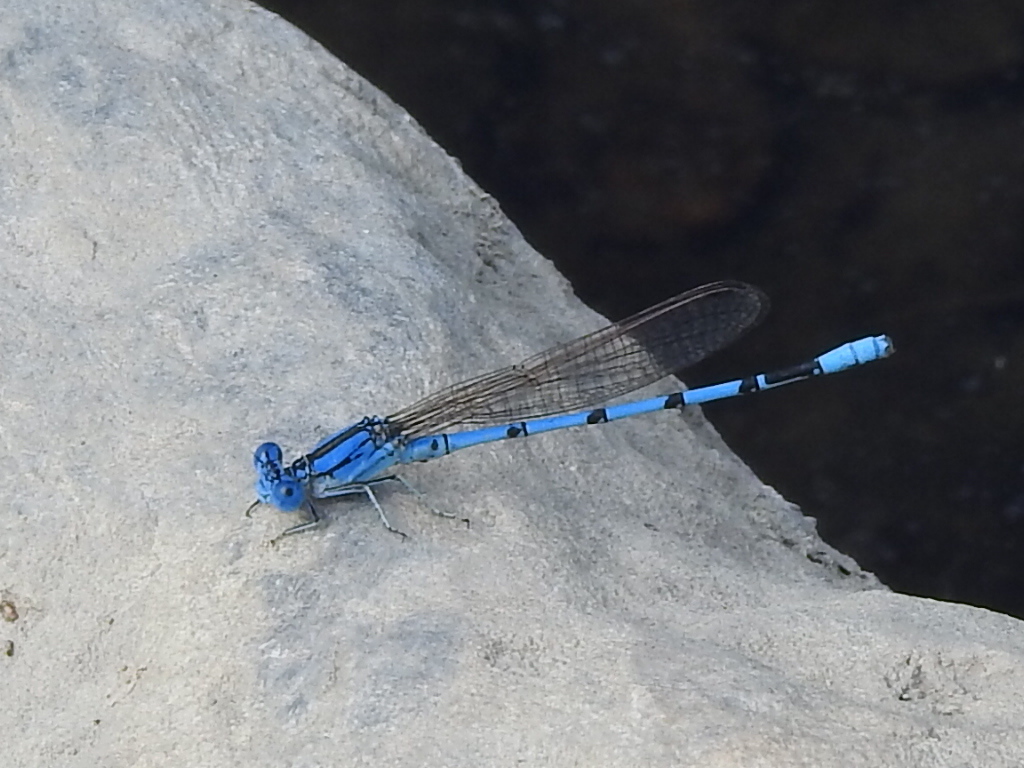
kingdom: Animalia
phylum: Arthropoda
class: Insecta
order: Odonata
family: Coenagrionidae
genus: Argia
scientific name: Argia nahuana
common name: Aztec dancer
